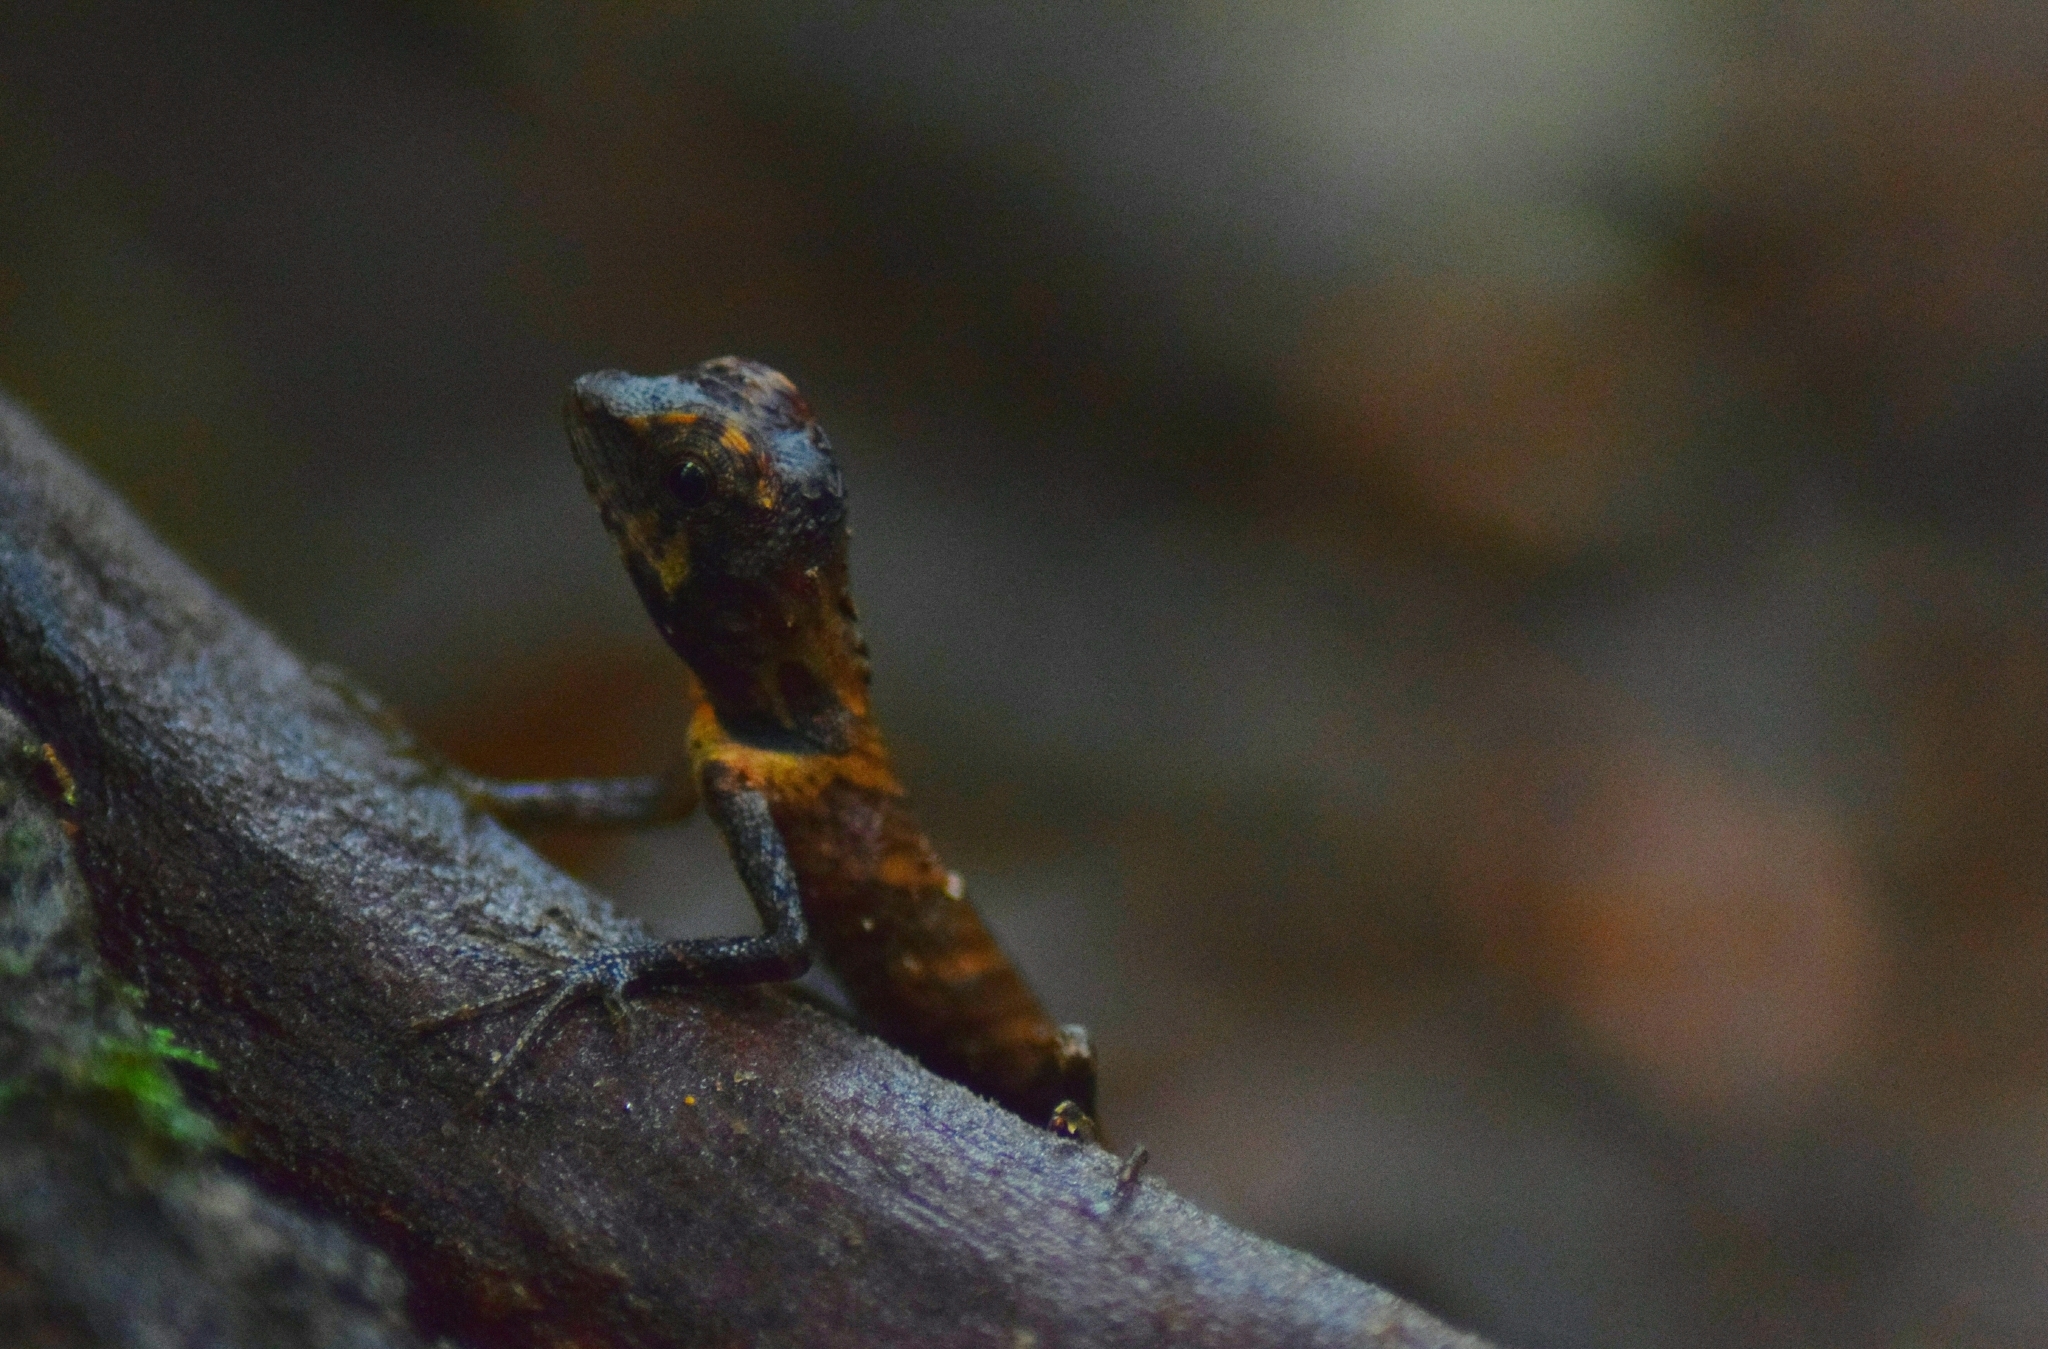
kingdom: Animalia
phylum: Chordata
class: Squamata
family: Agamidae
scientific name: Agamidae
